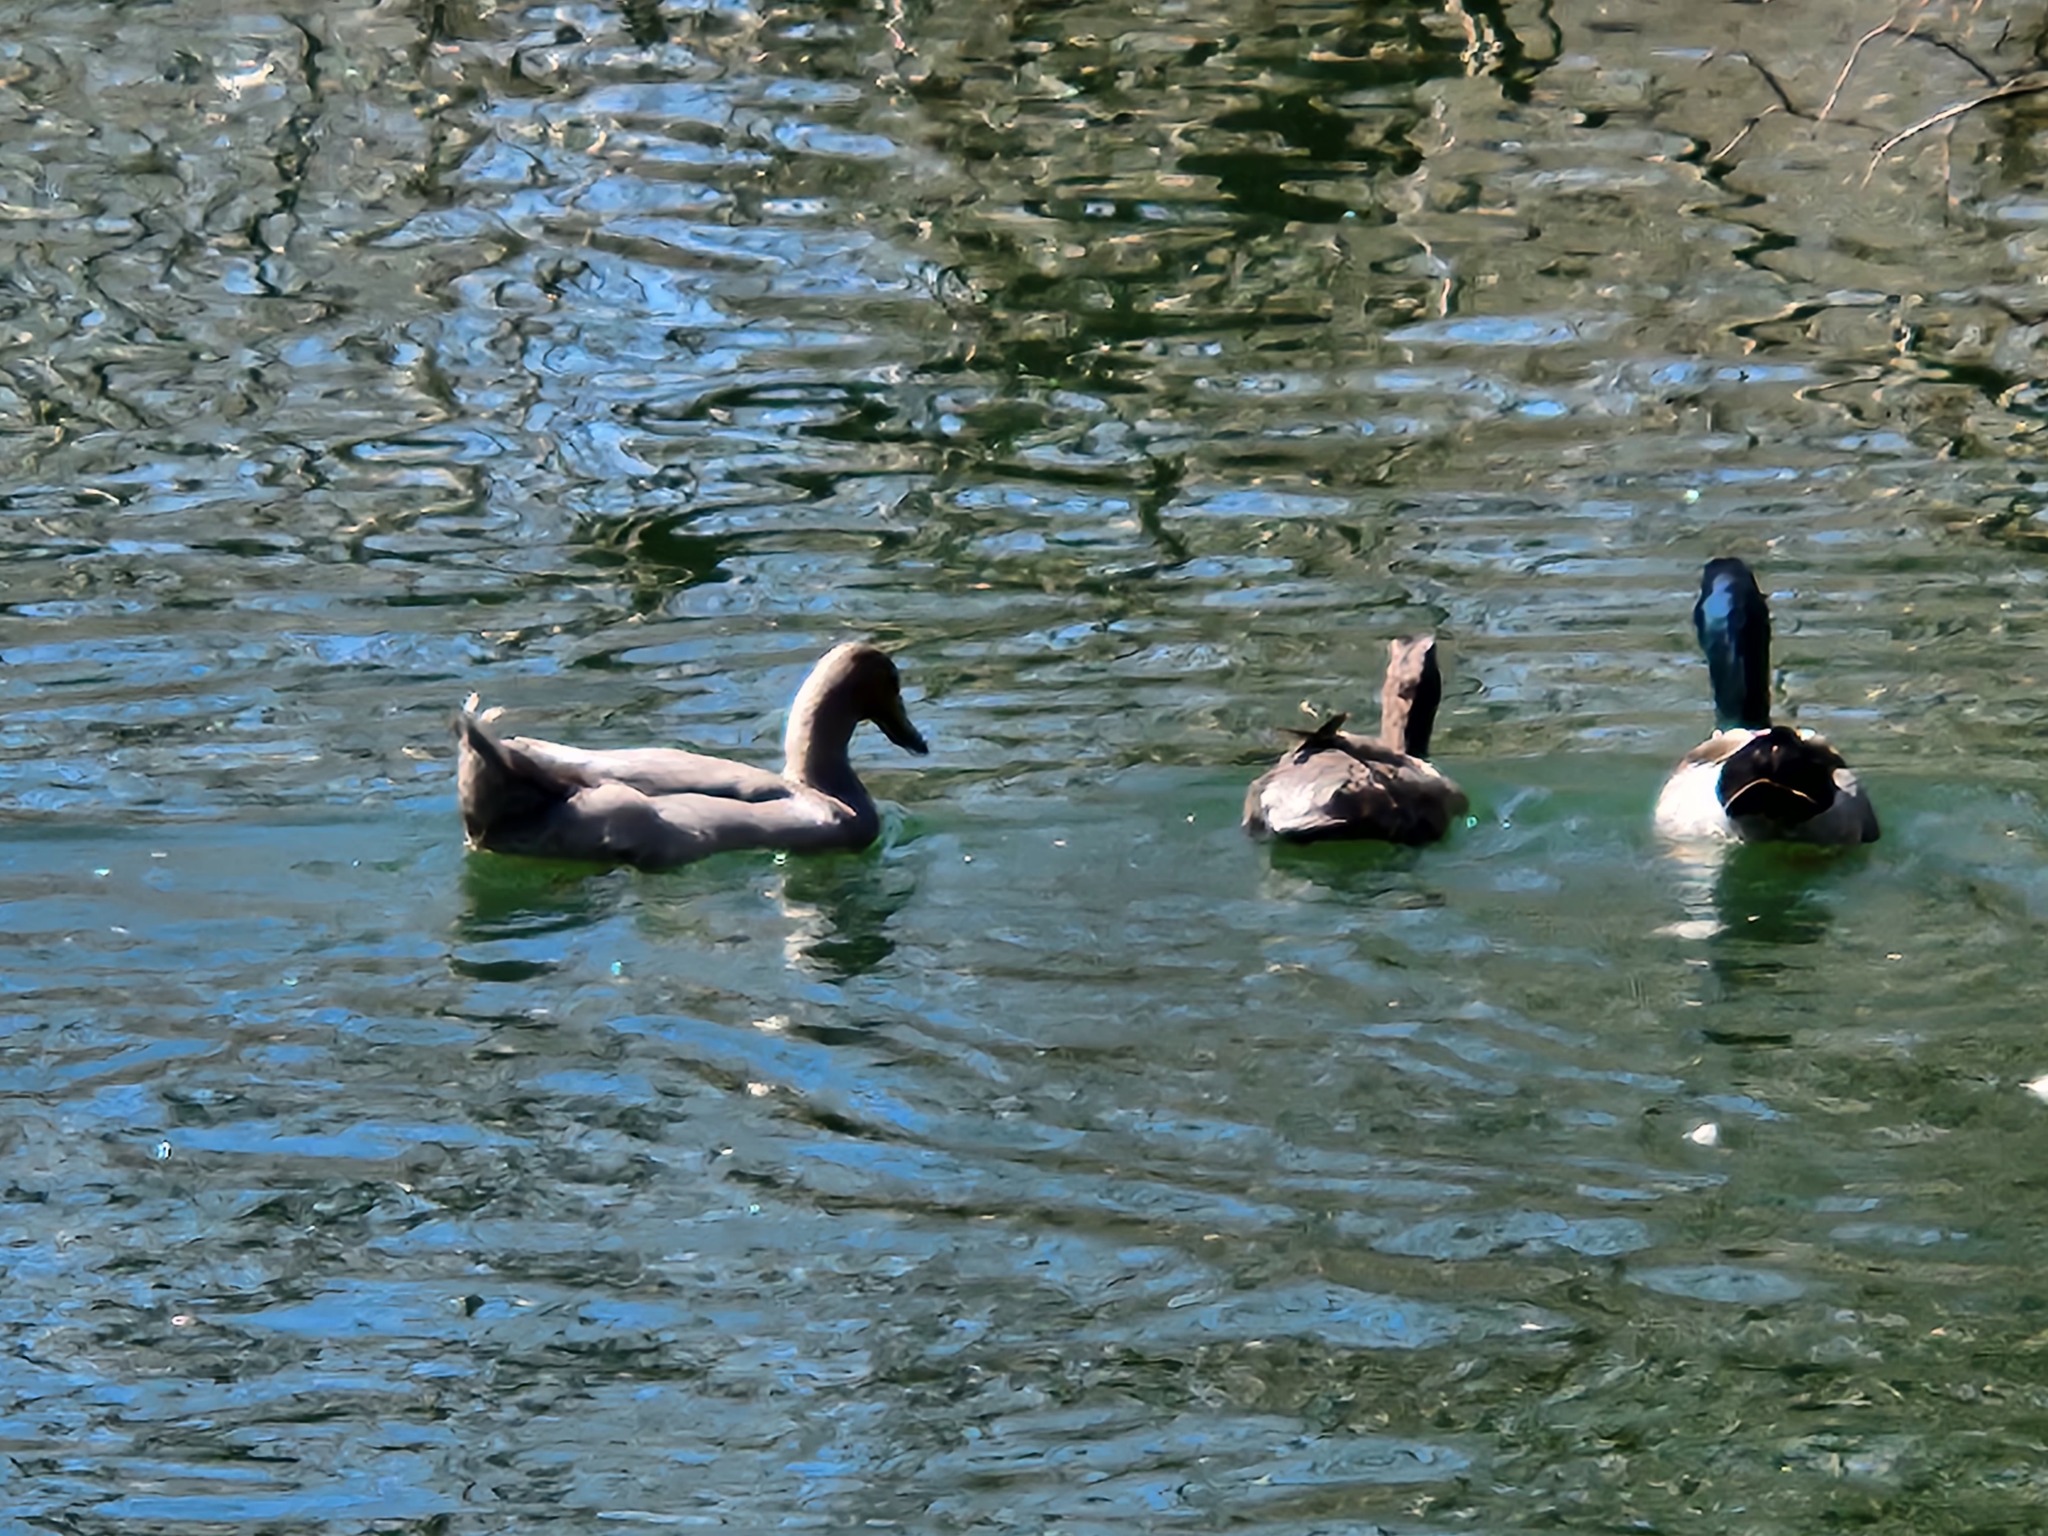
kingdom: Animalia
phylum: Chordata
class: Aves
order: Anseriformes
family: Anatidae
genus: Anas
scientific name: Anas platyrhynchos
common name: Mallard
